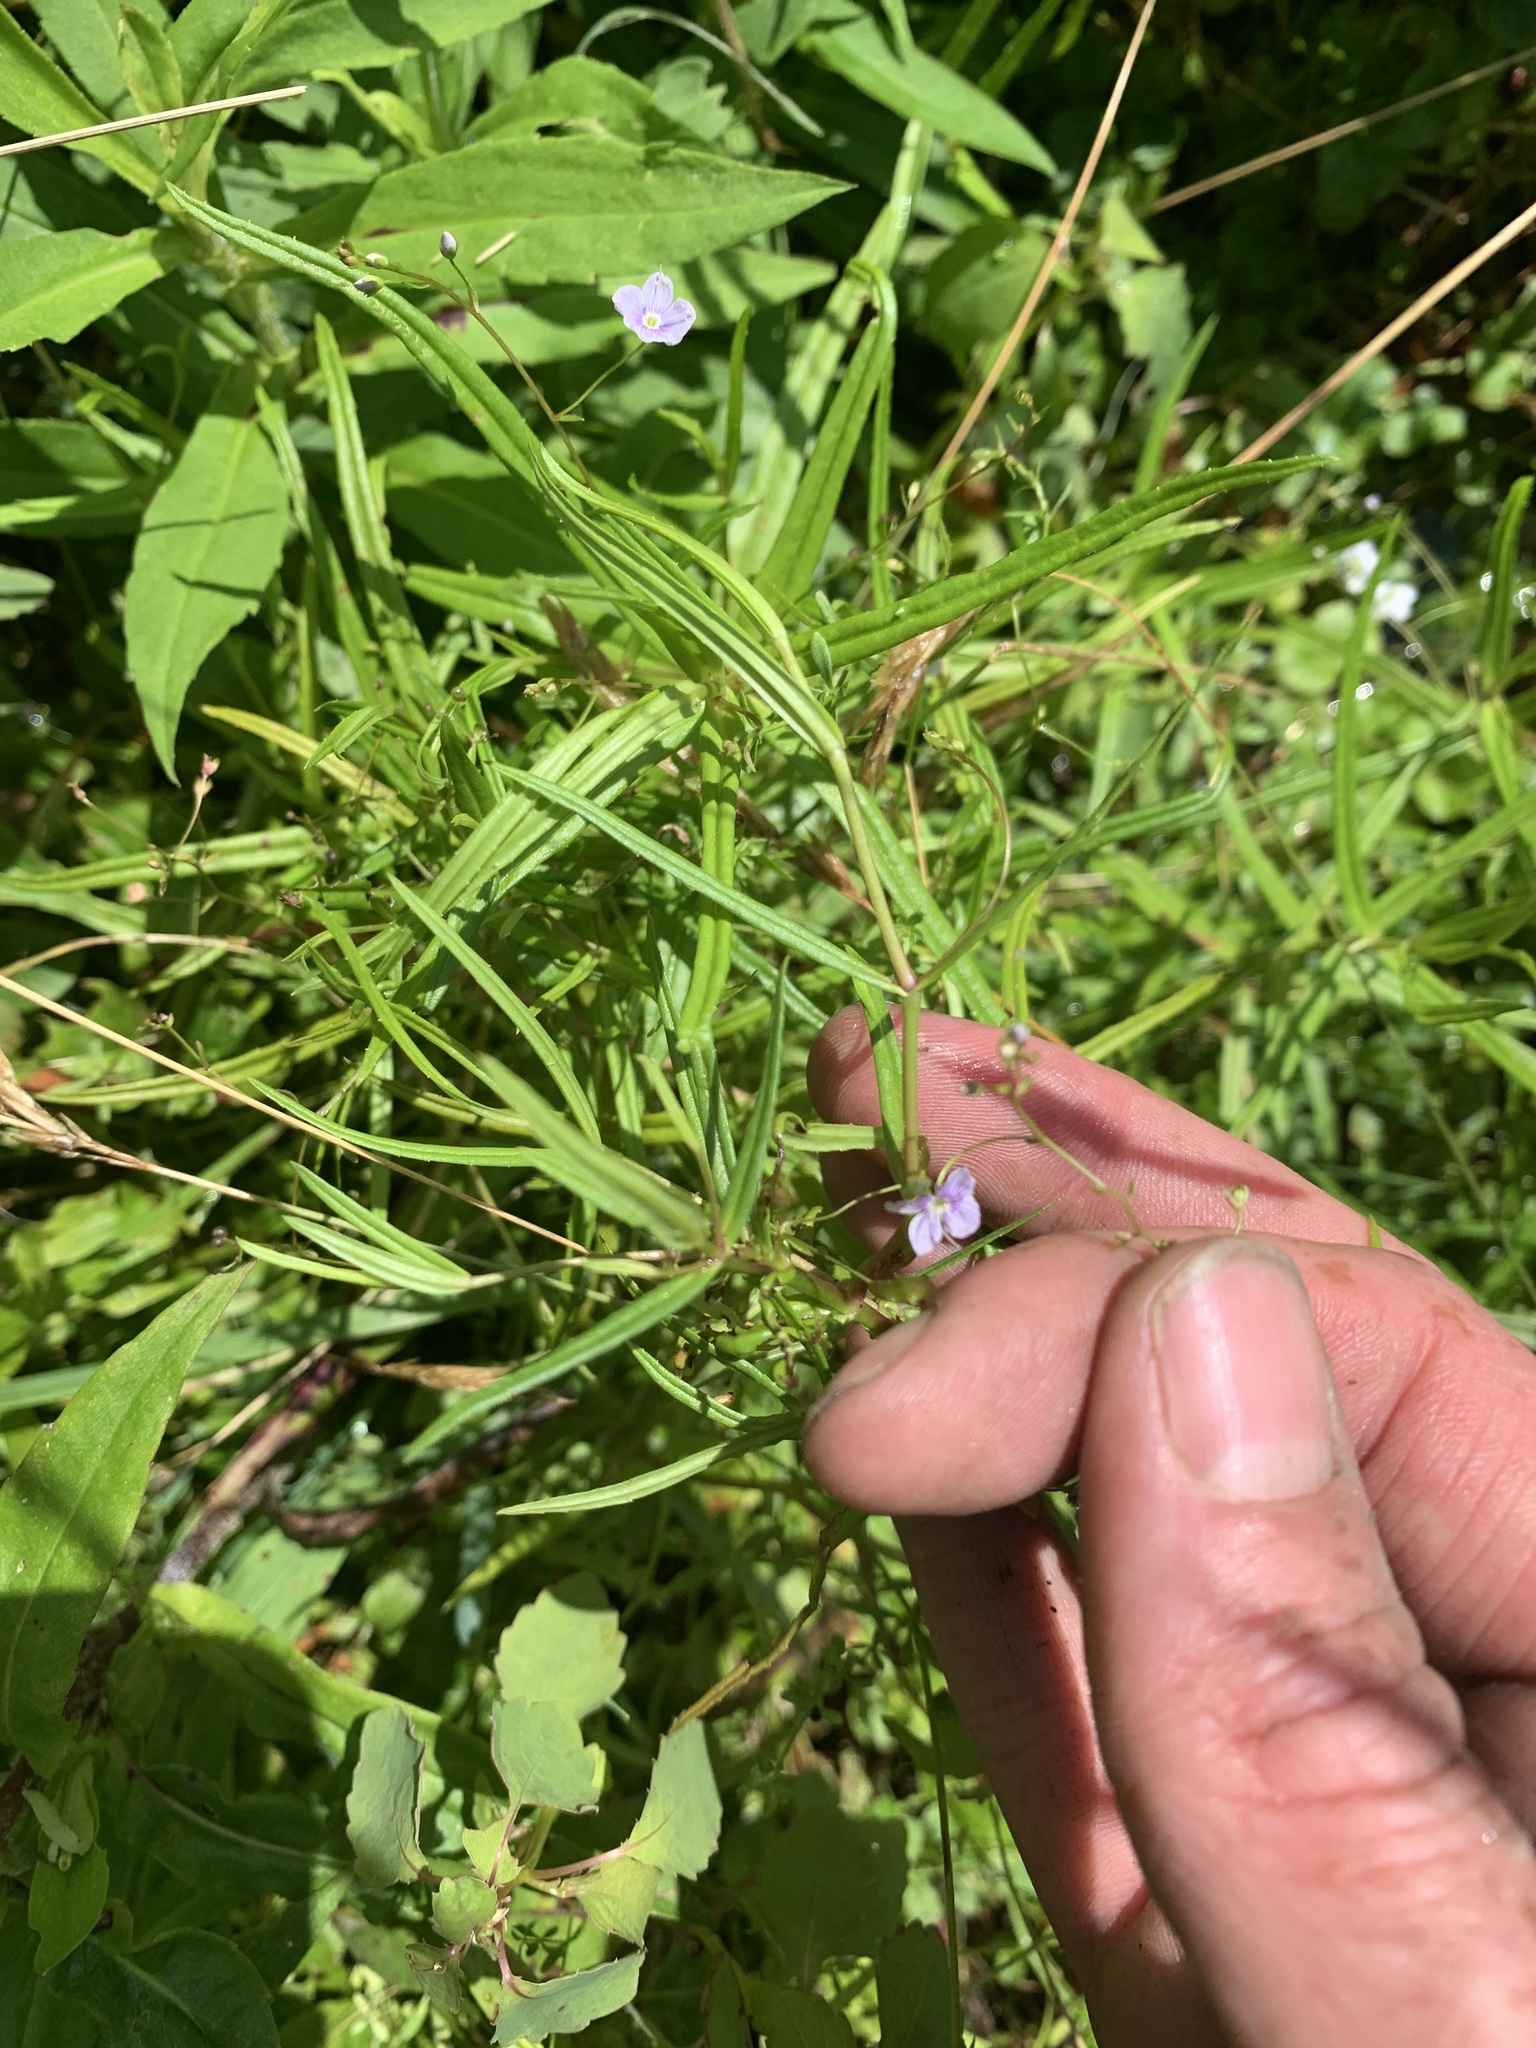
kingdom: Plantae
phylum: Tracheophyta
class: Magnoliopsida
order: Lamiales
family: Plantaginaceae
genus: Veronica
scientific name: Veronica scutellata
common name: Marsh speedwell
